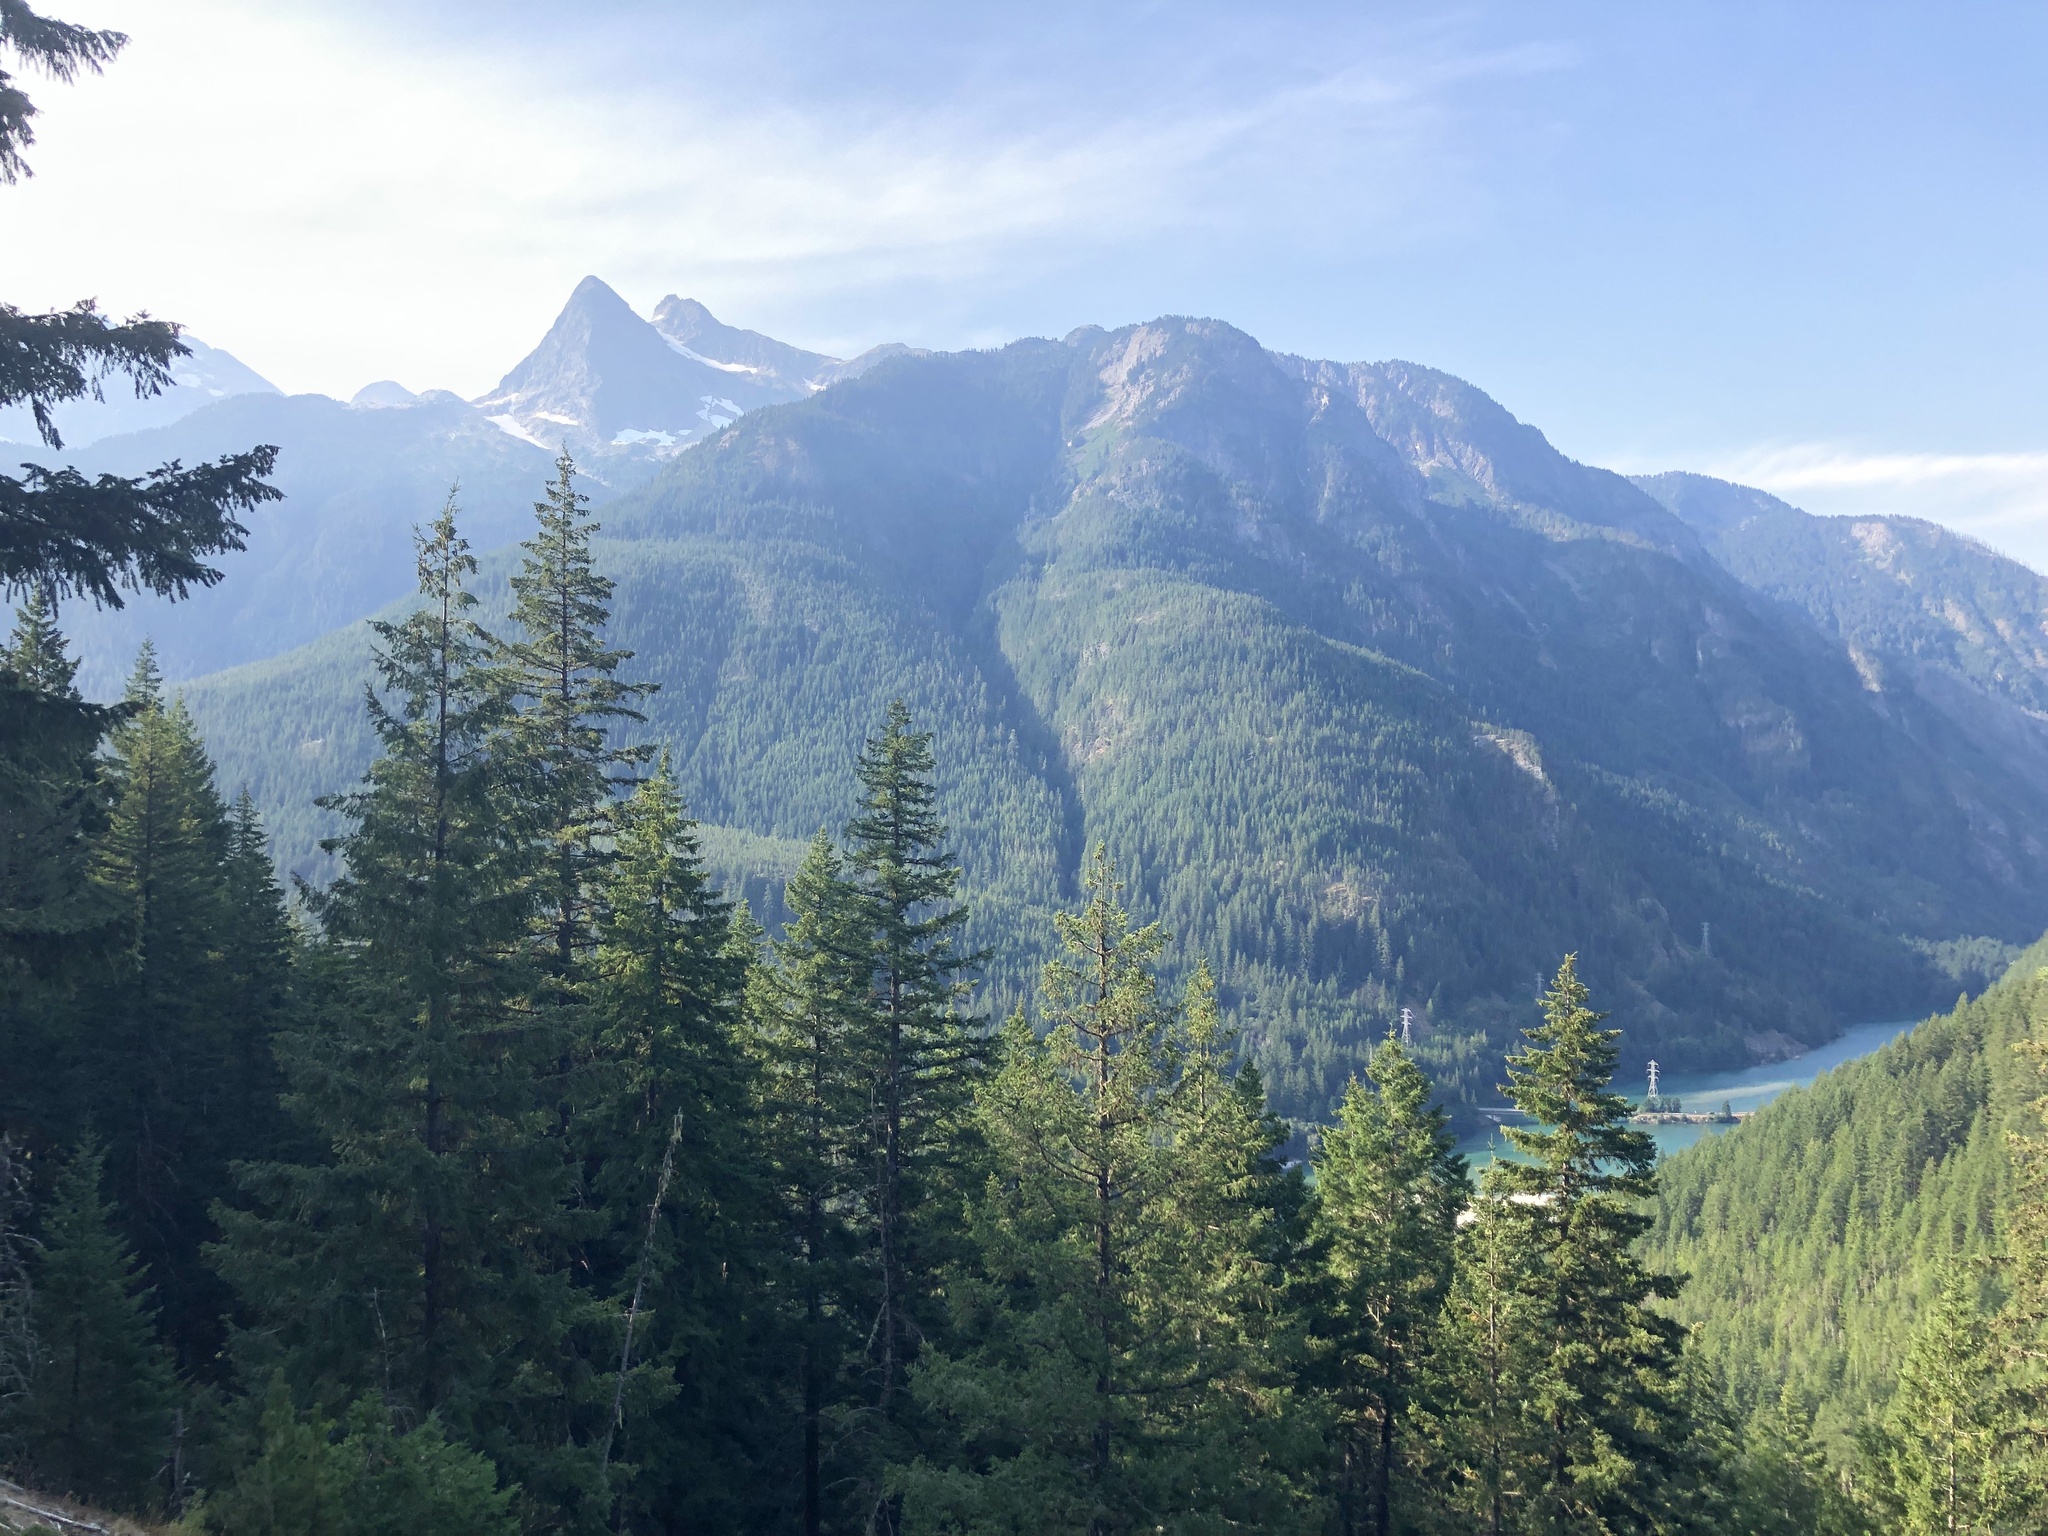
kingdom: Plantae
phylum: Tracheophyta
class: Pinopsida
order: Pinales
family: Pinaceae
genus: Pseudotsuga
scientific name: Pseudotsuga menziesii
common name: Douglas fir
